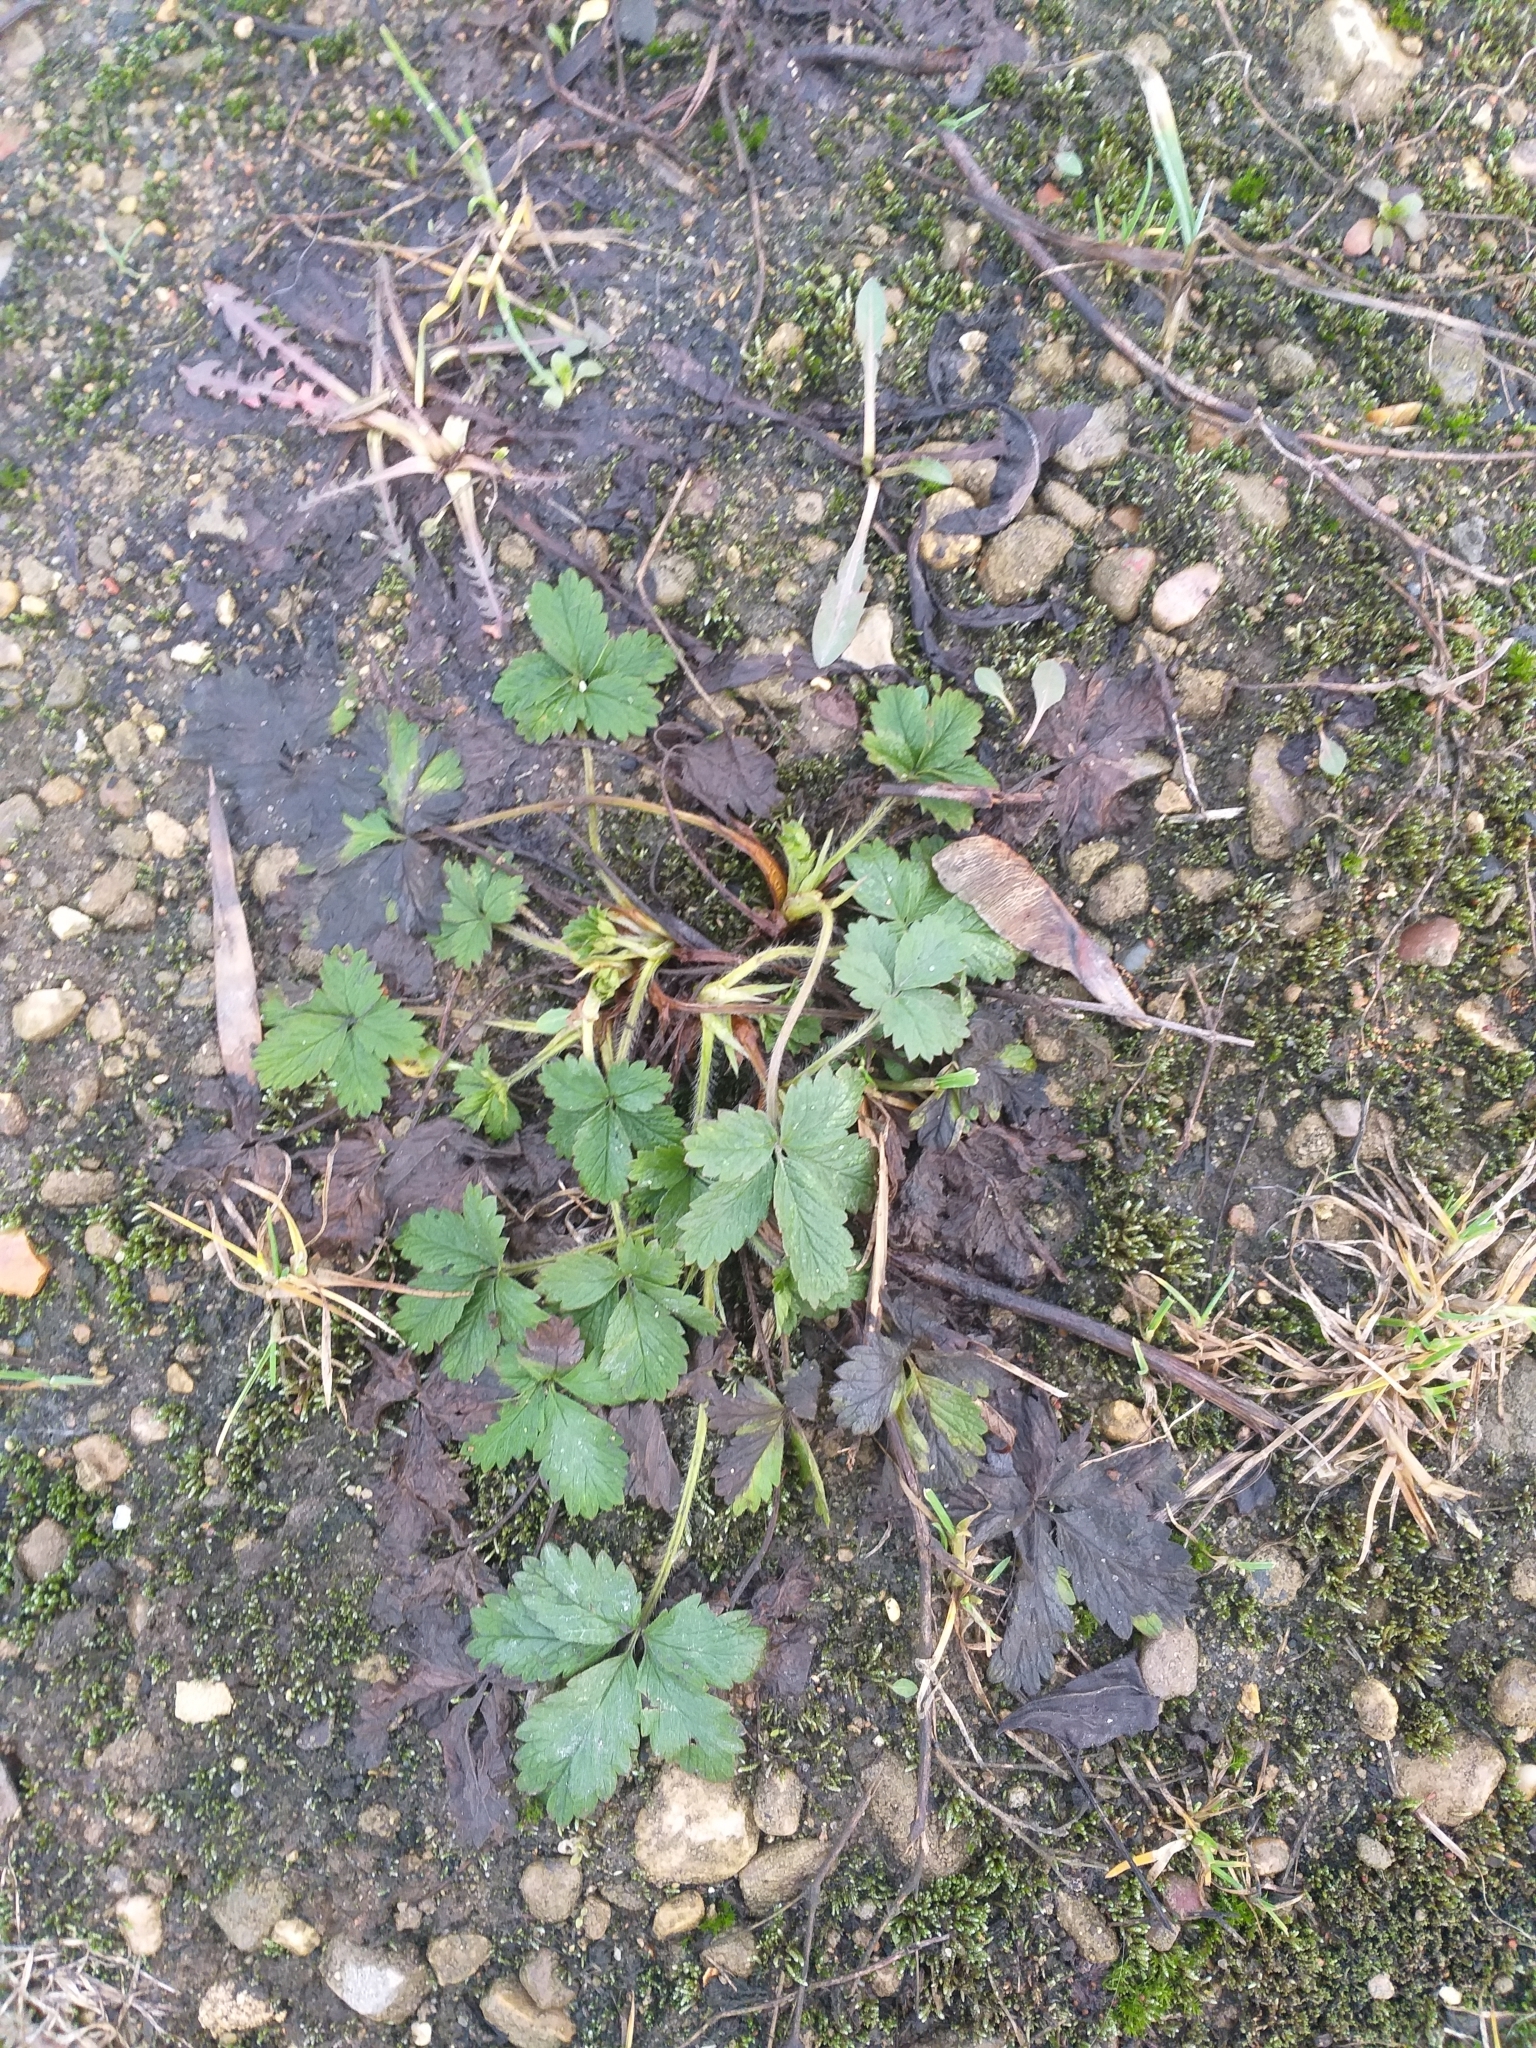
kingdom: Plantae
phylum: Tracheophyta
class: Magnoliopsida
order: Rosales
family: Rosaceae
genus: Potentilla
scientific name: Potentilla intermedia
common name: Downy cinquefoil
